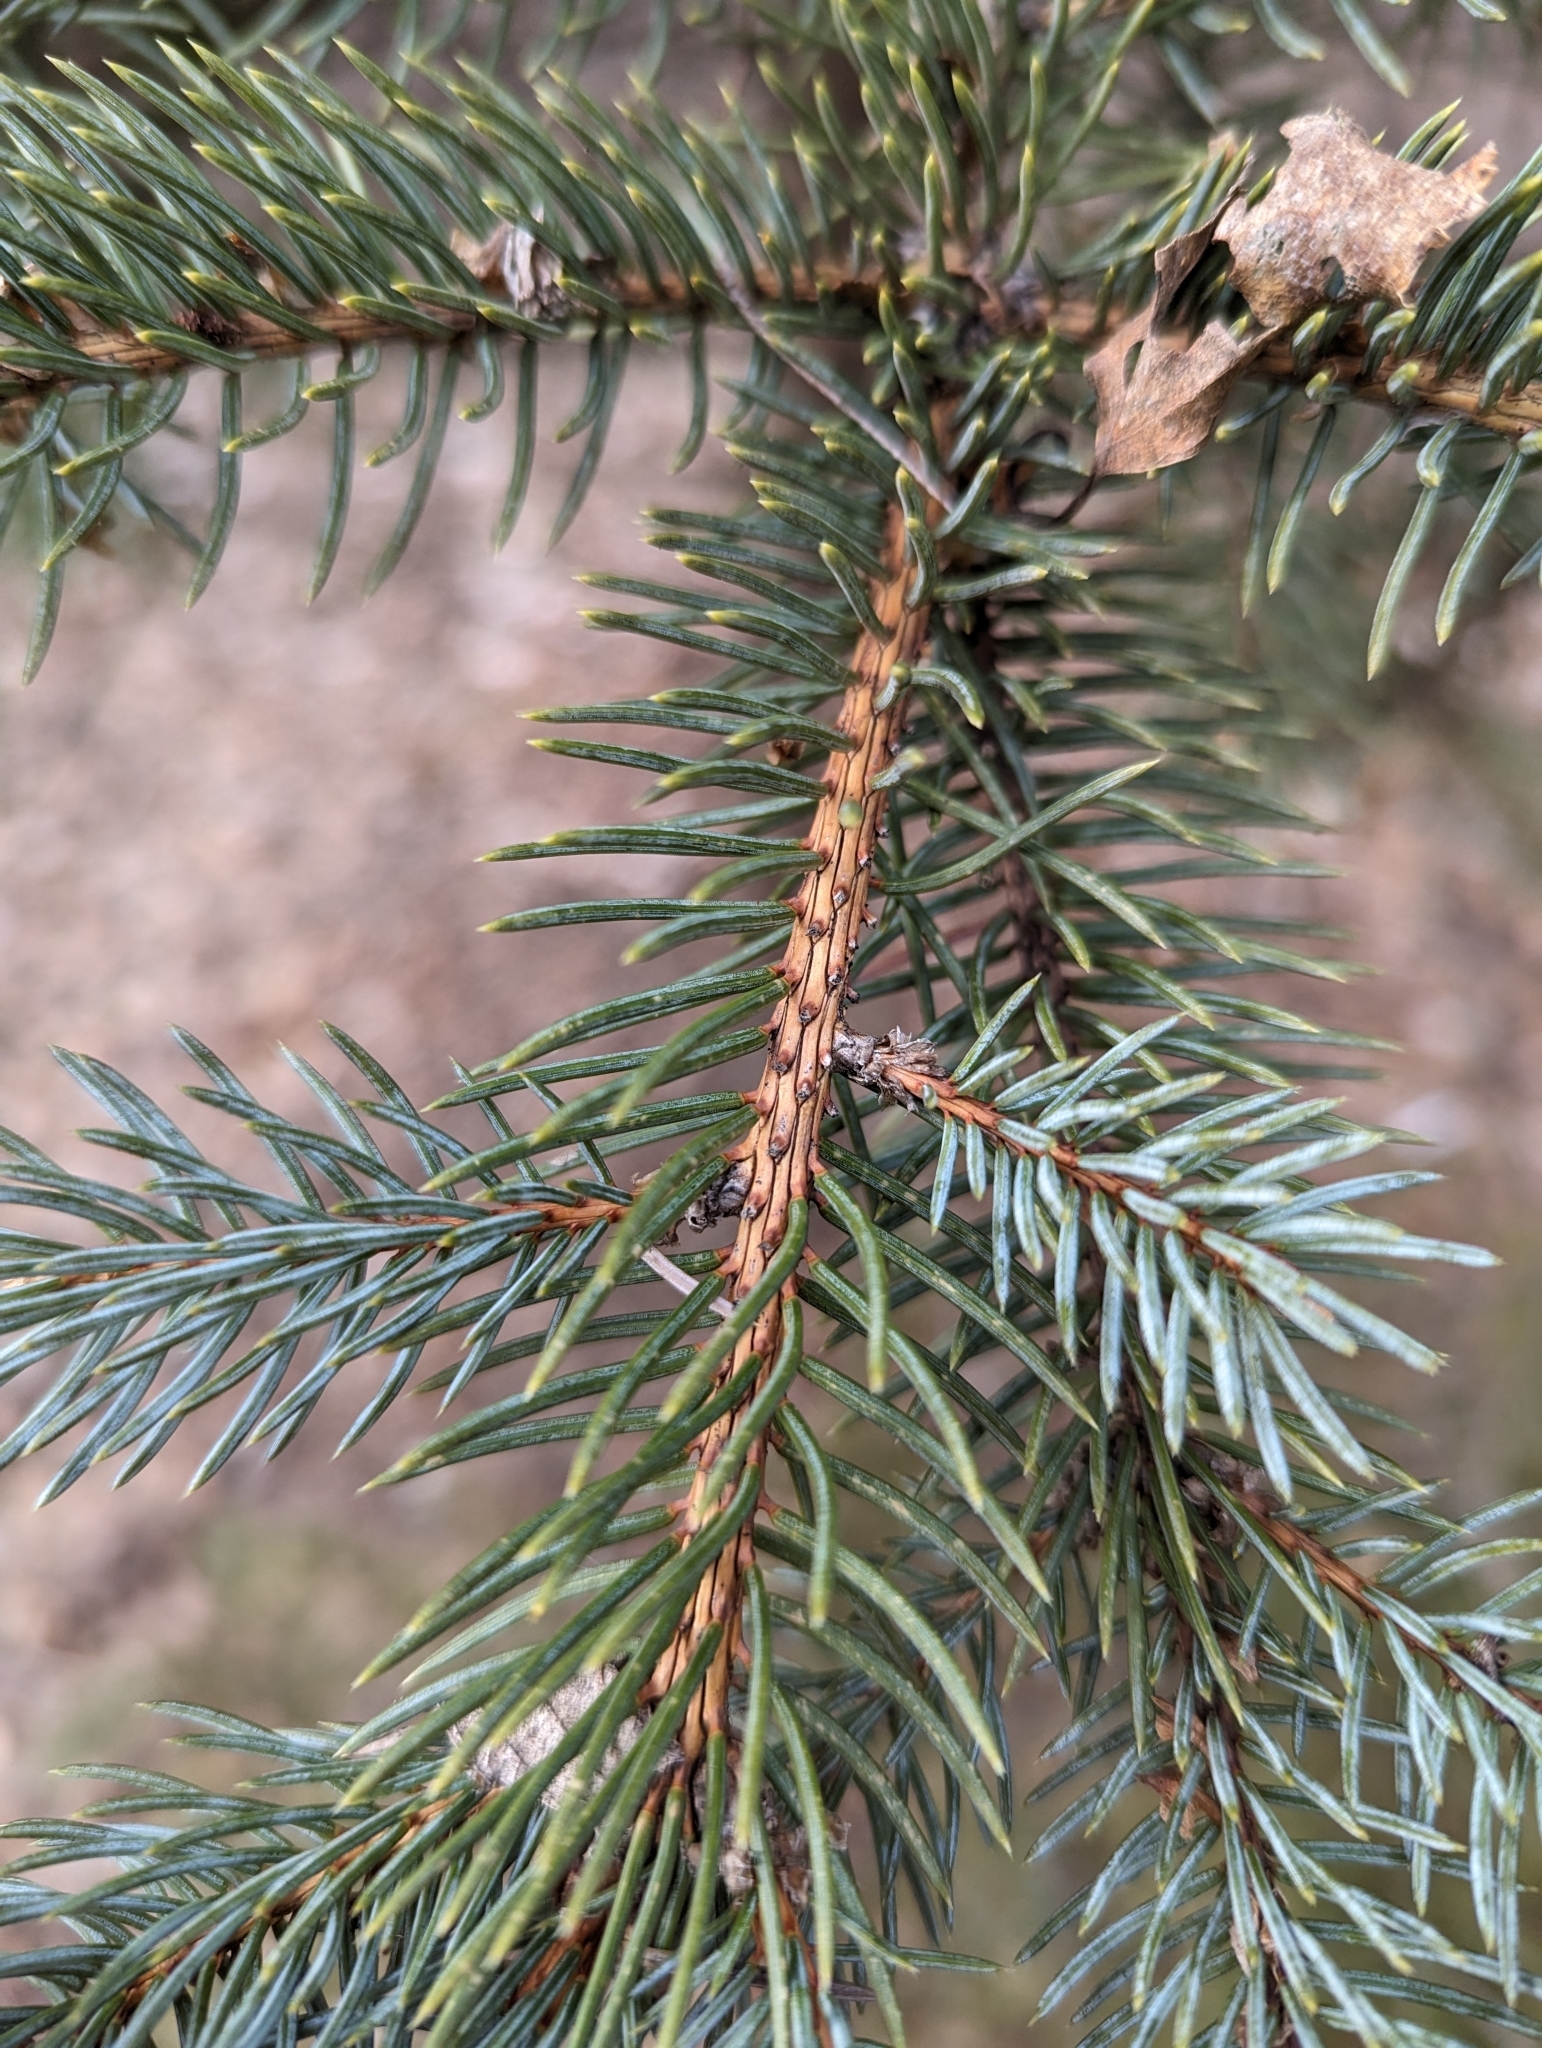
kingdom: Plantae
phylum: Tracheophyta
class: Pinopsida
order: Pinales
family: Pinaceae
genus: Picea
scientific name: Picea glauca
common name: White spruce
